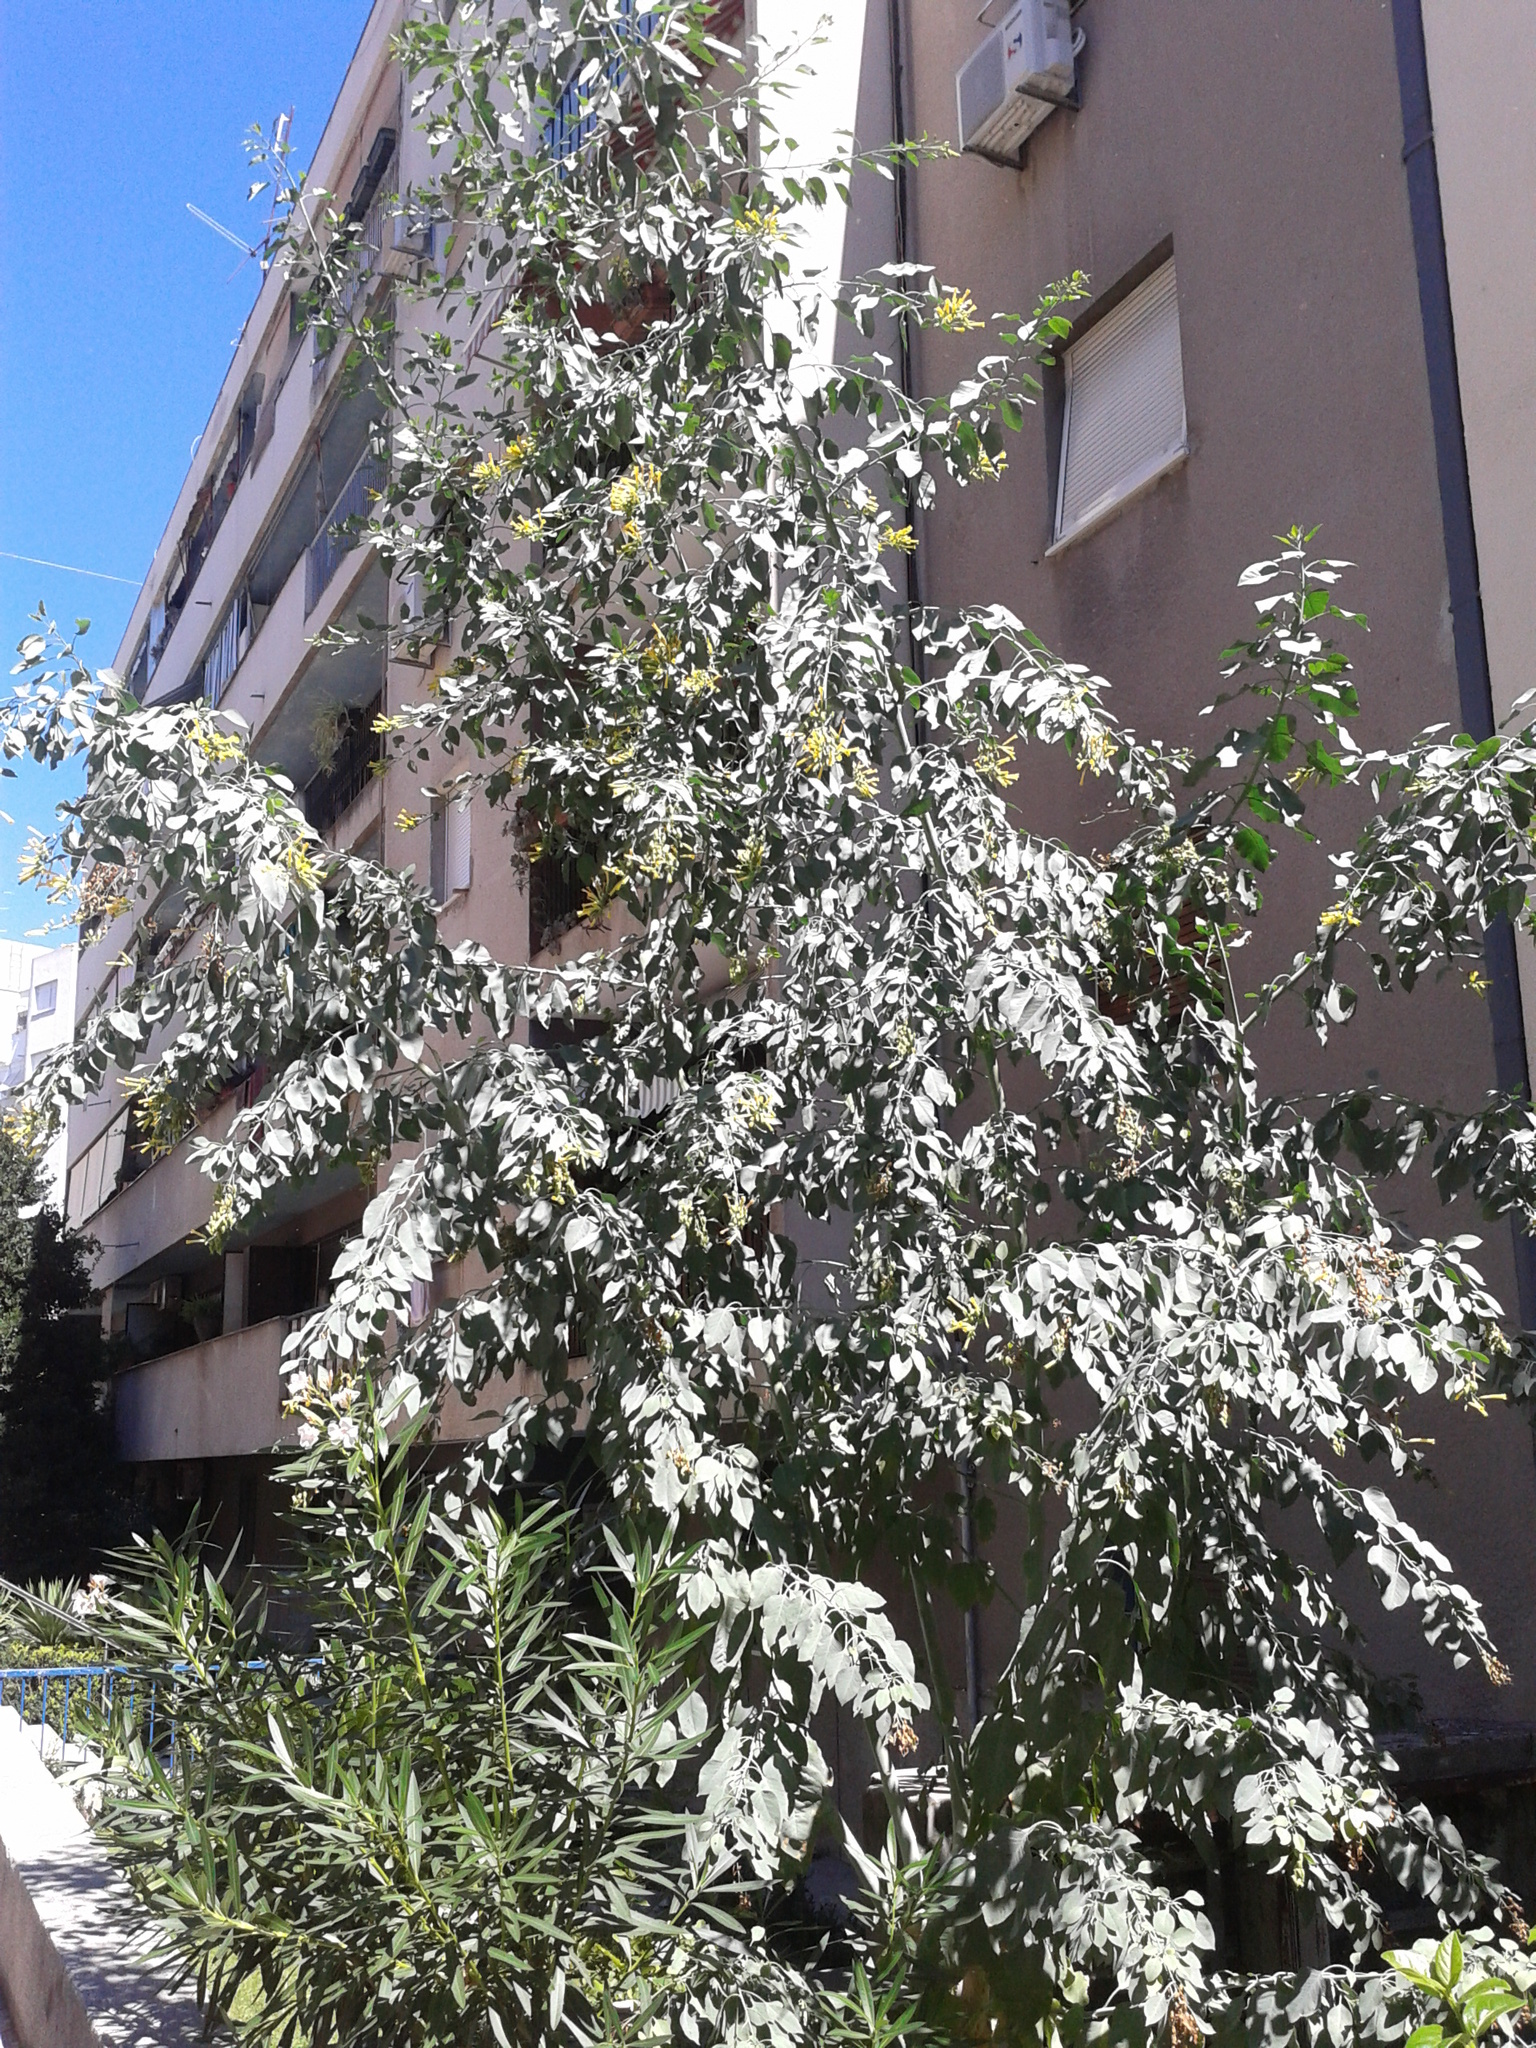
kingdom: Plantae
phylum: Tracheophyta
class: Magnoliopsida
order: Solanales
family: Solanaceae
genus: Nicotiana
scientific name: Nicotiana glauca
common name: Tree tobacco
